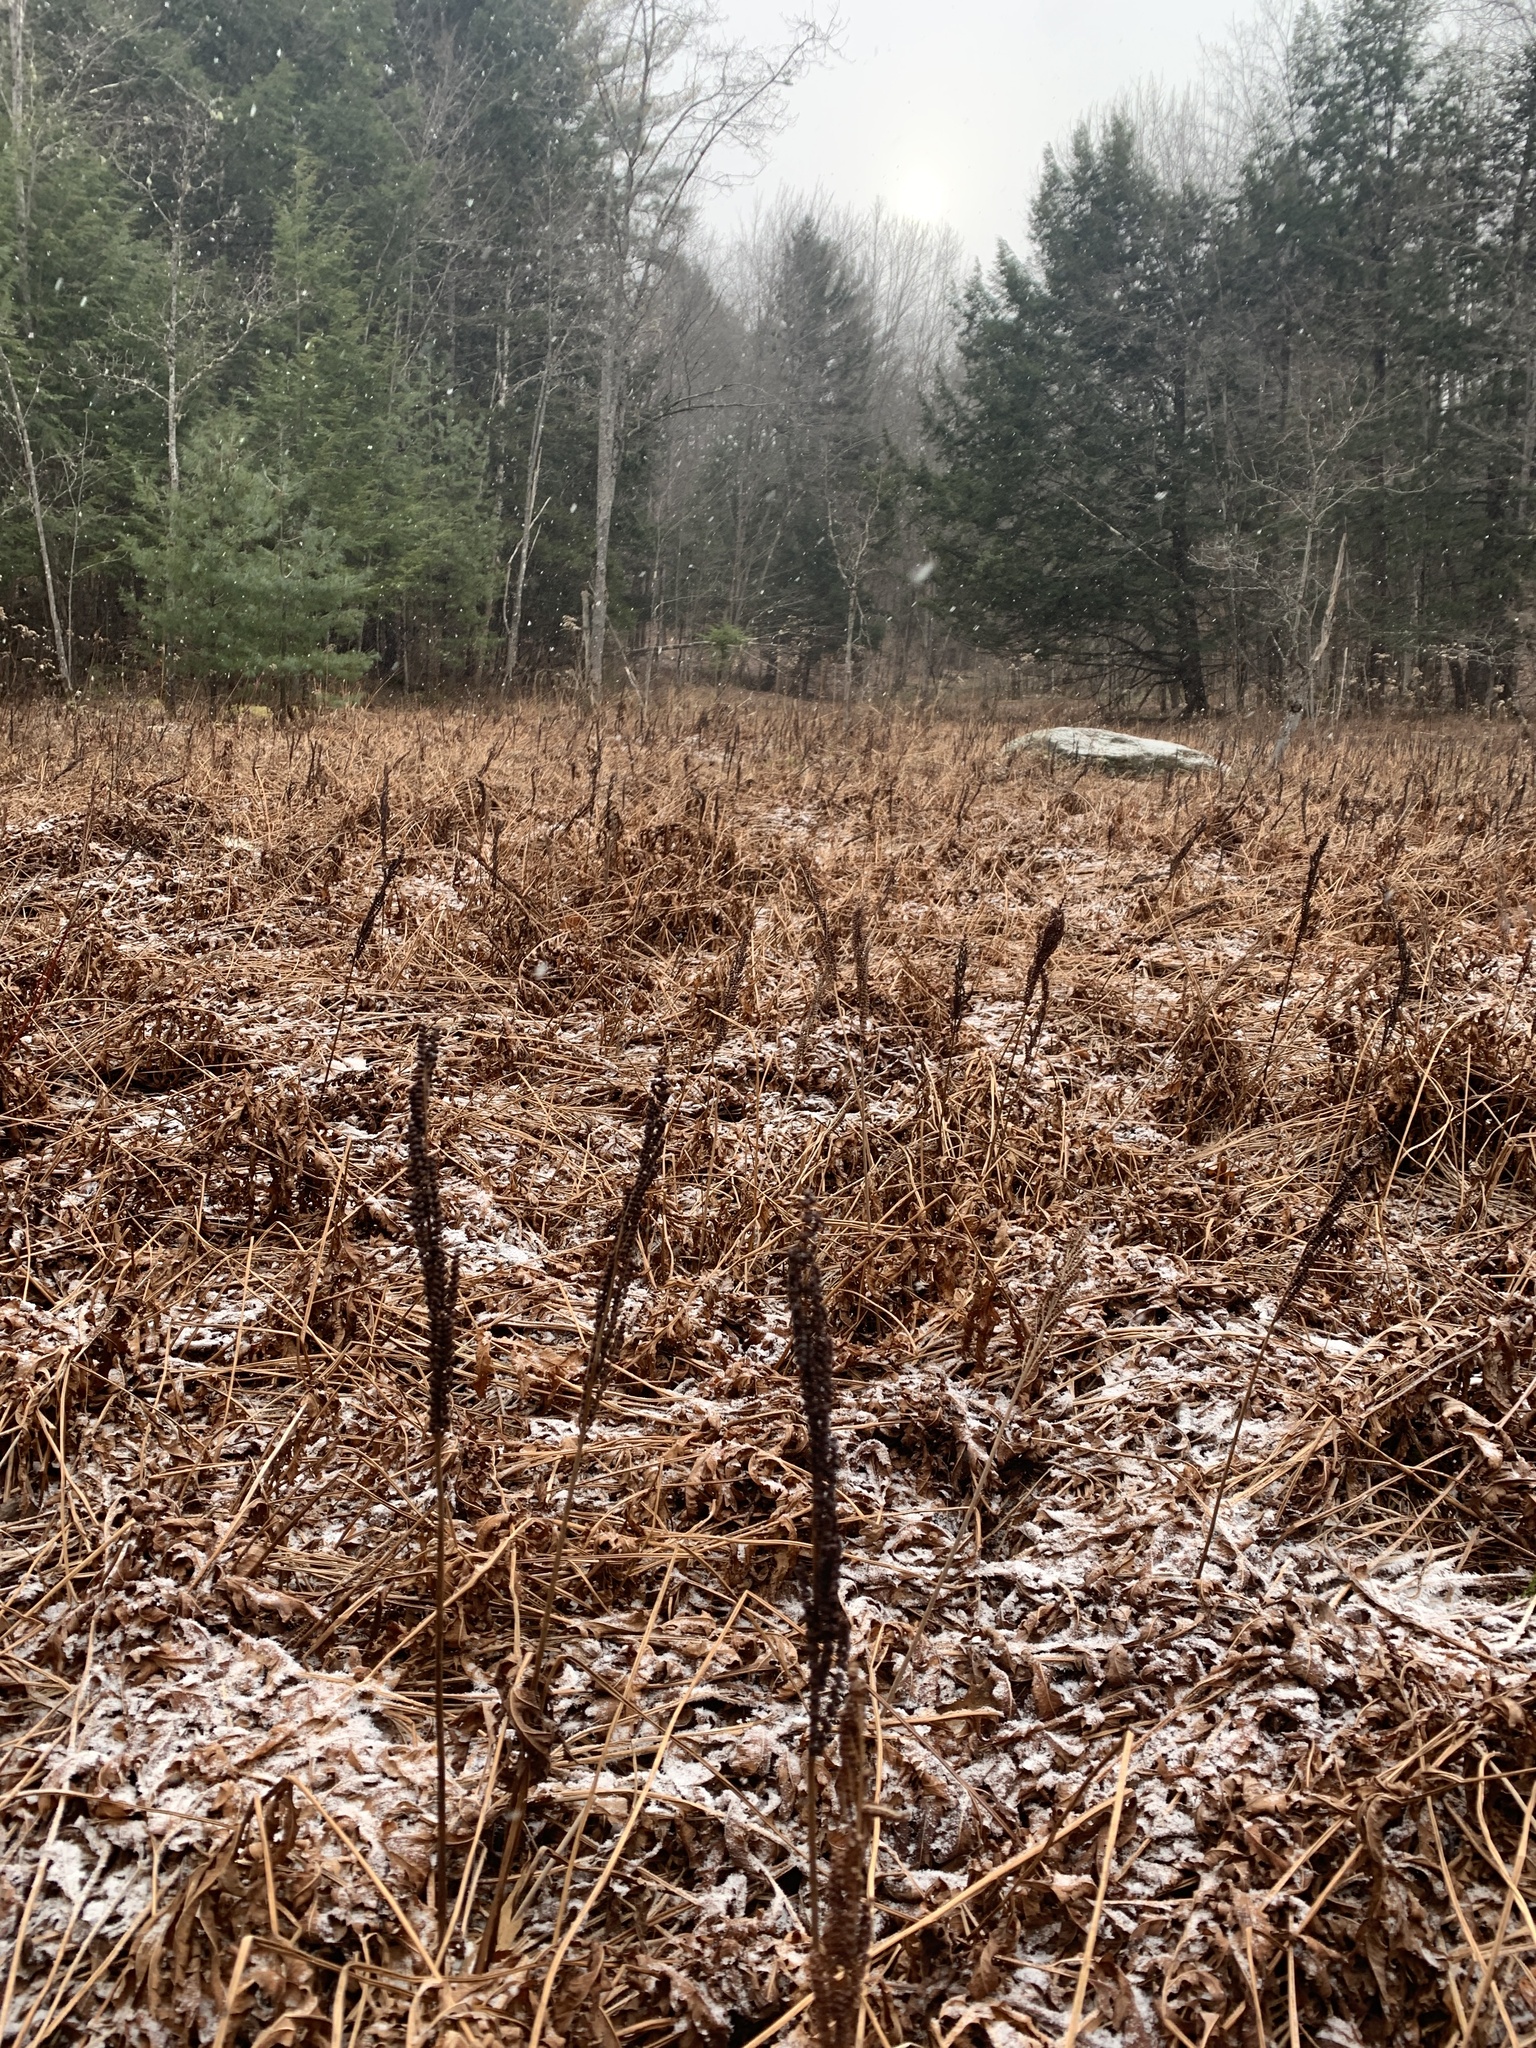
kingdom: Plantae
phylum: Tracheophyta
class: Polypodiopsida
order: Polypodiales
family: Onocleaceae
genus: Onoclea
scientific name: Onoclea sensibilis
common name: Sensitive fern
